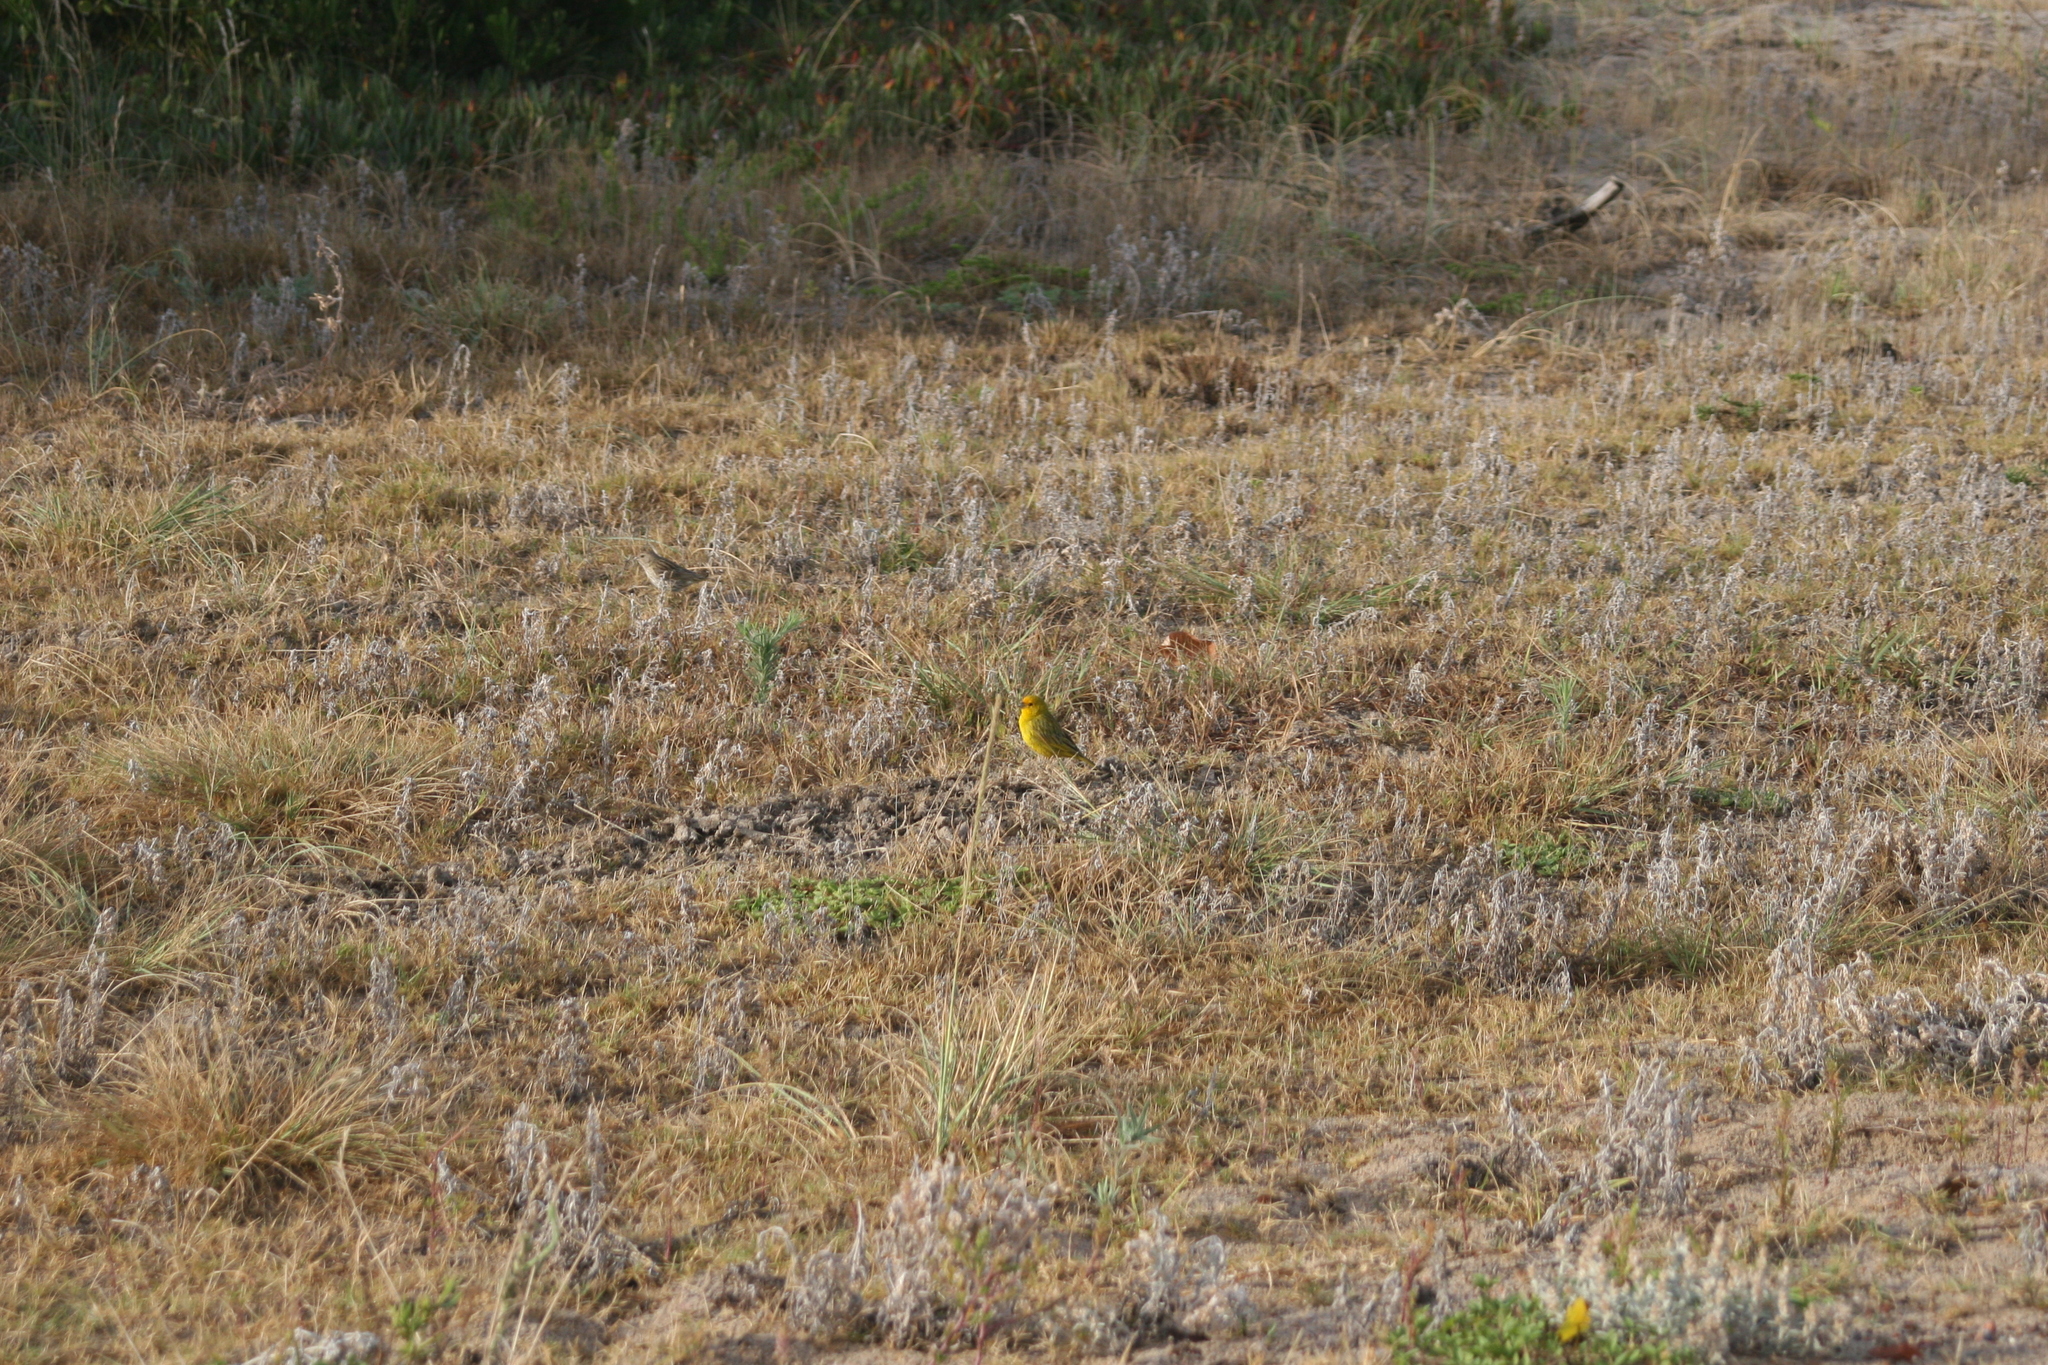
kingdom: Animalia
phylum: Chordata
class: Aves
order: Passeriformes
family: Thraupidae
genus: Sicalis
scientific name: Sicalis flaveola
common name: Saffron finch
